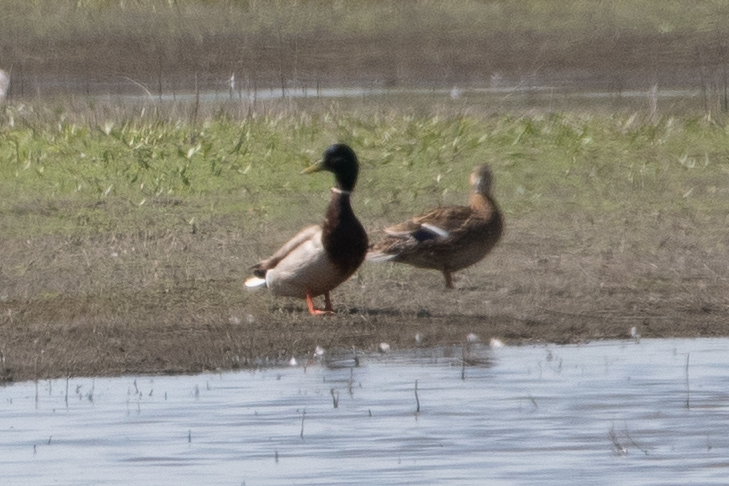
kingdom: Animalia
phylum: Chordata
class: Aves
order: Anseriformes
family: Anatidae
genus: Anas
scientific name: Anas platyrhynchos
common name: Mallard
